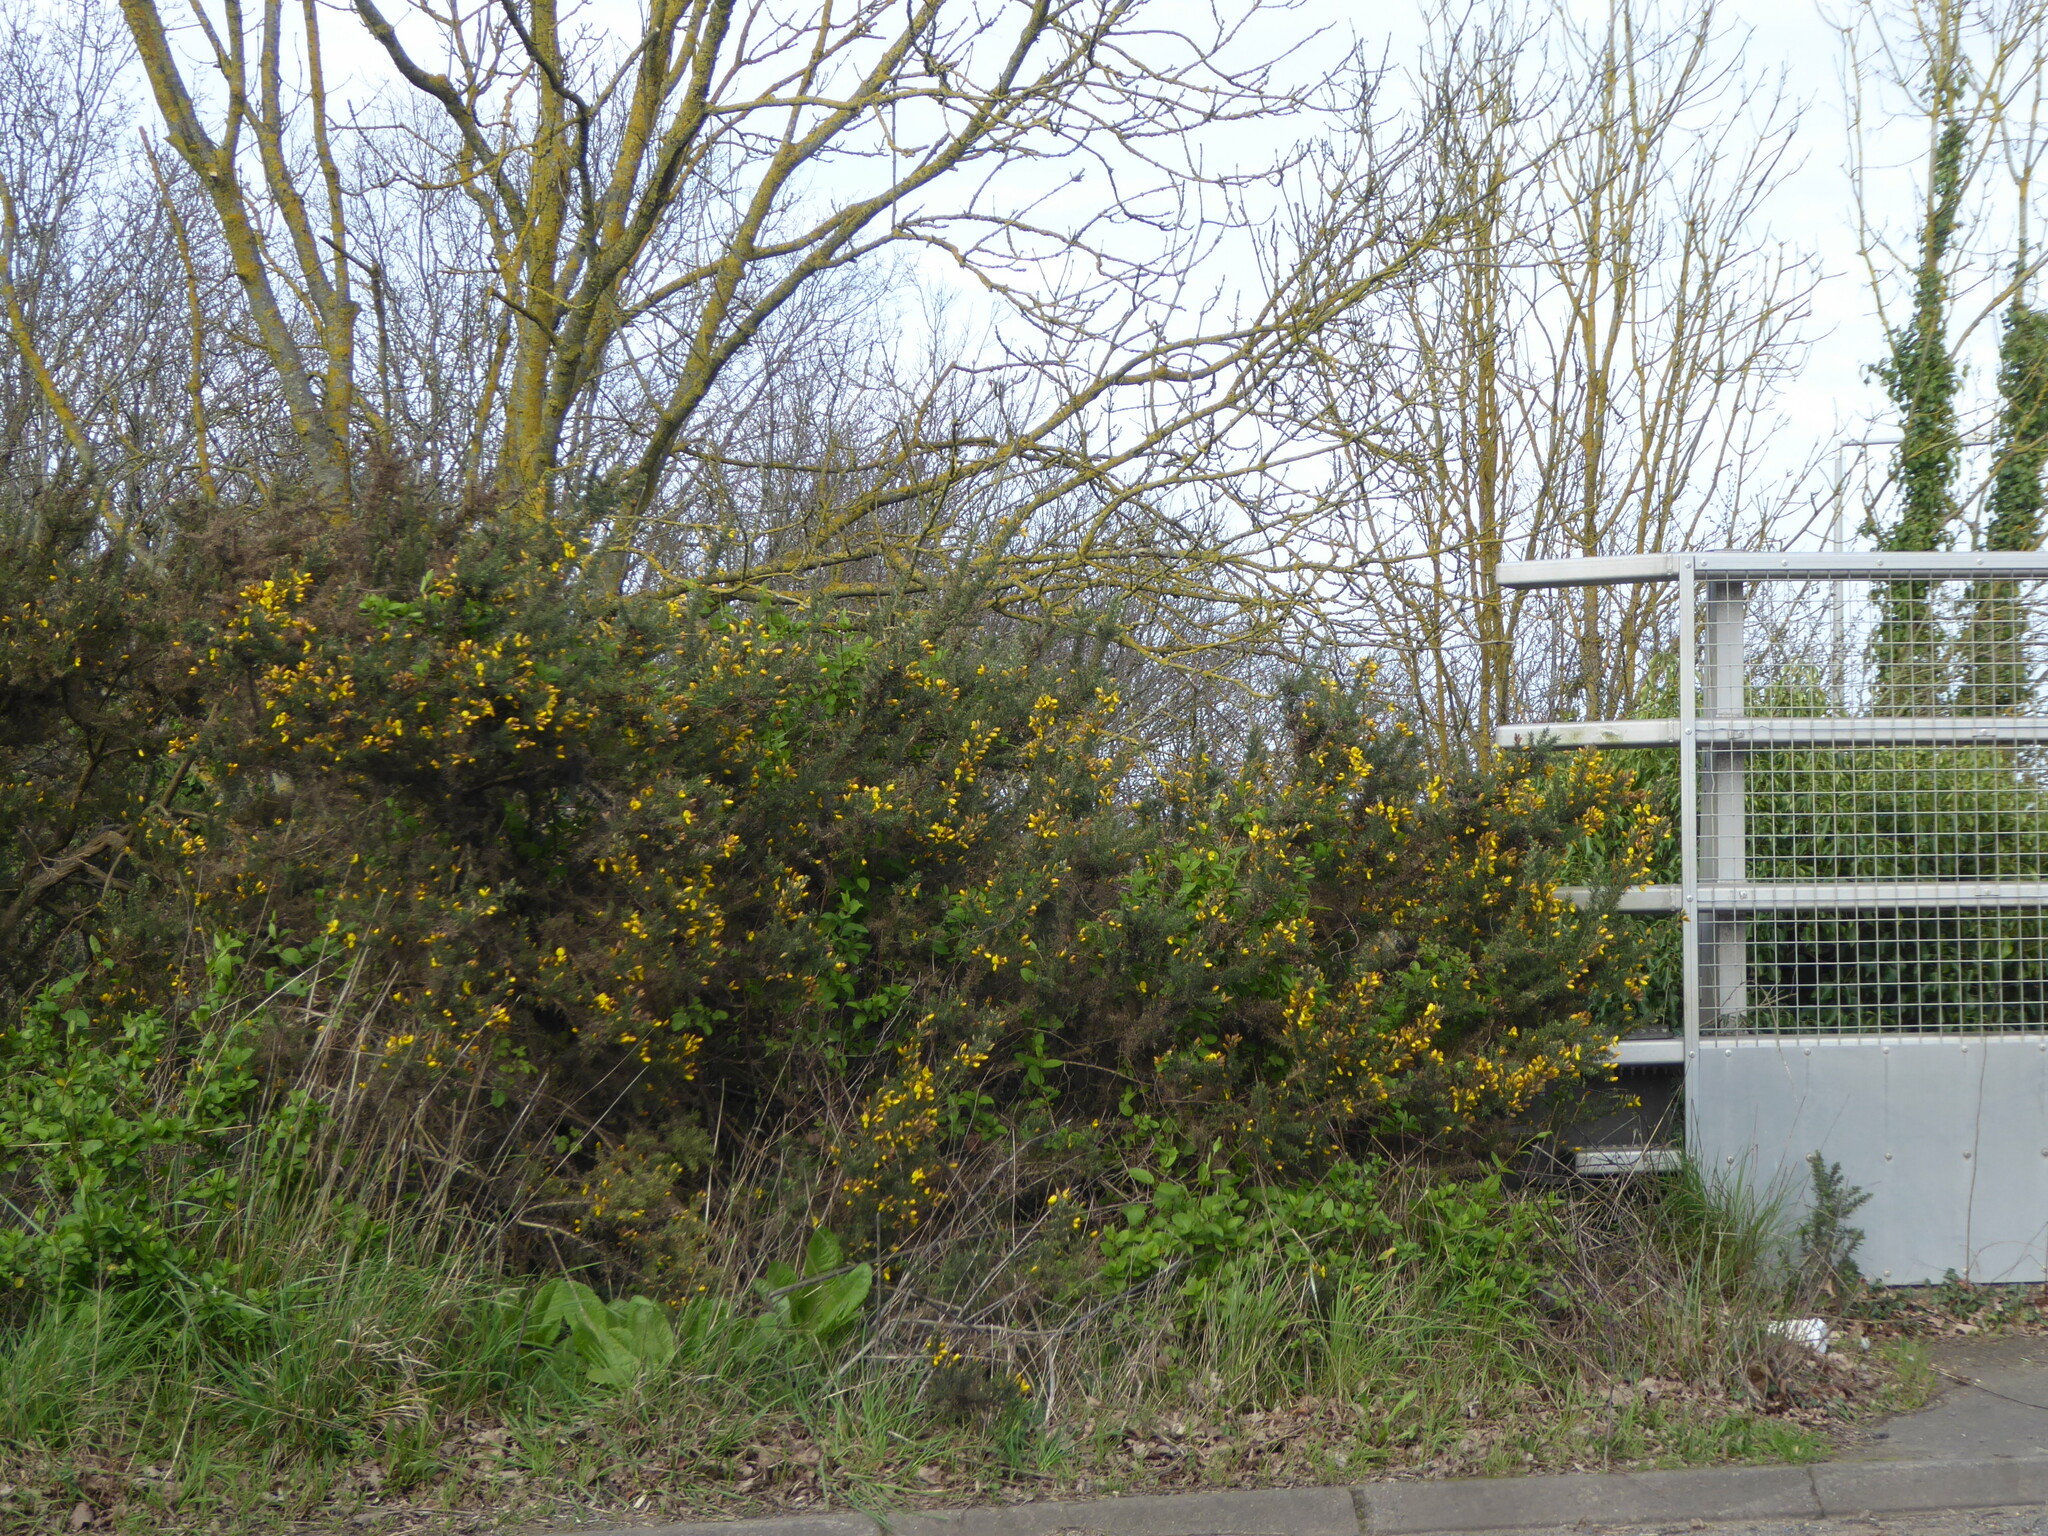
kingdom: Plantae
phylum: Tracheophyta
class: Magnoliopsida
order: Fabales
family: Fabaceae
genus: Ulex
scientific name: Ulex europaeus
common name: Common gorse
